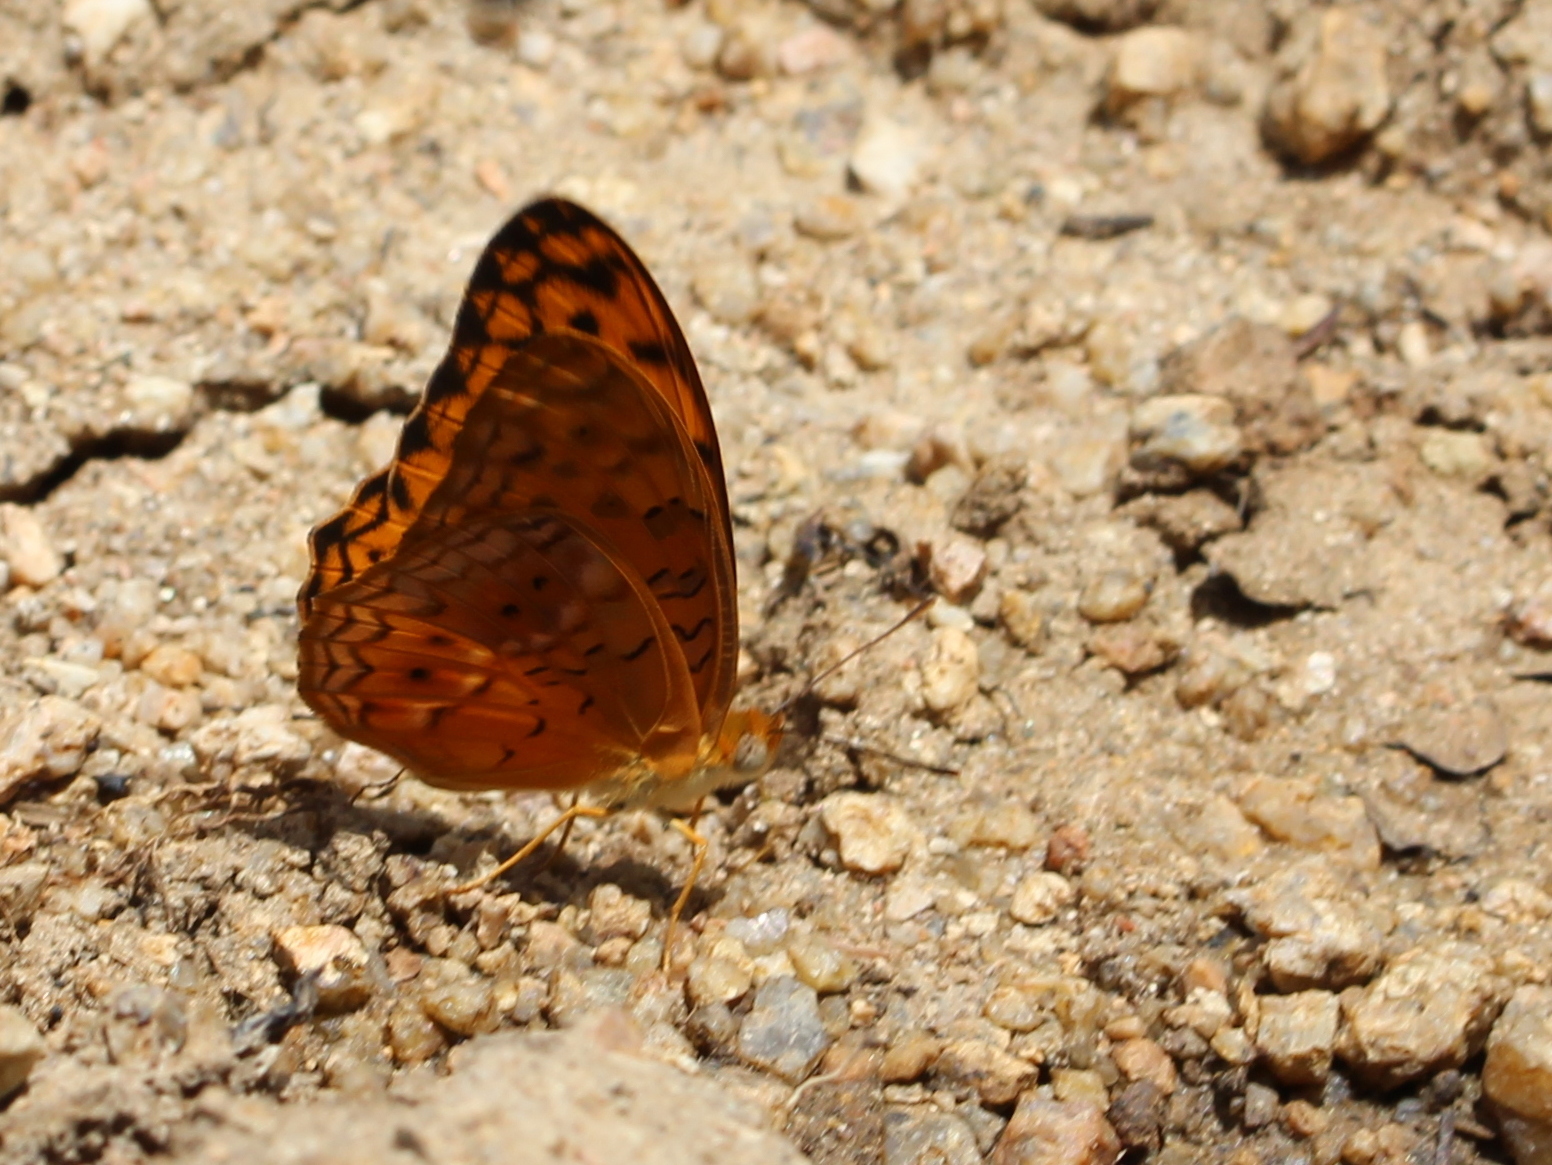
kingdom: Animalia
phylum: Arthropoda
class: Insecta
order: Lepidoptera
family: Nymphalidae
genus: Phalanta
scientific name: Phalanta phalantha
